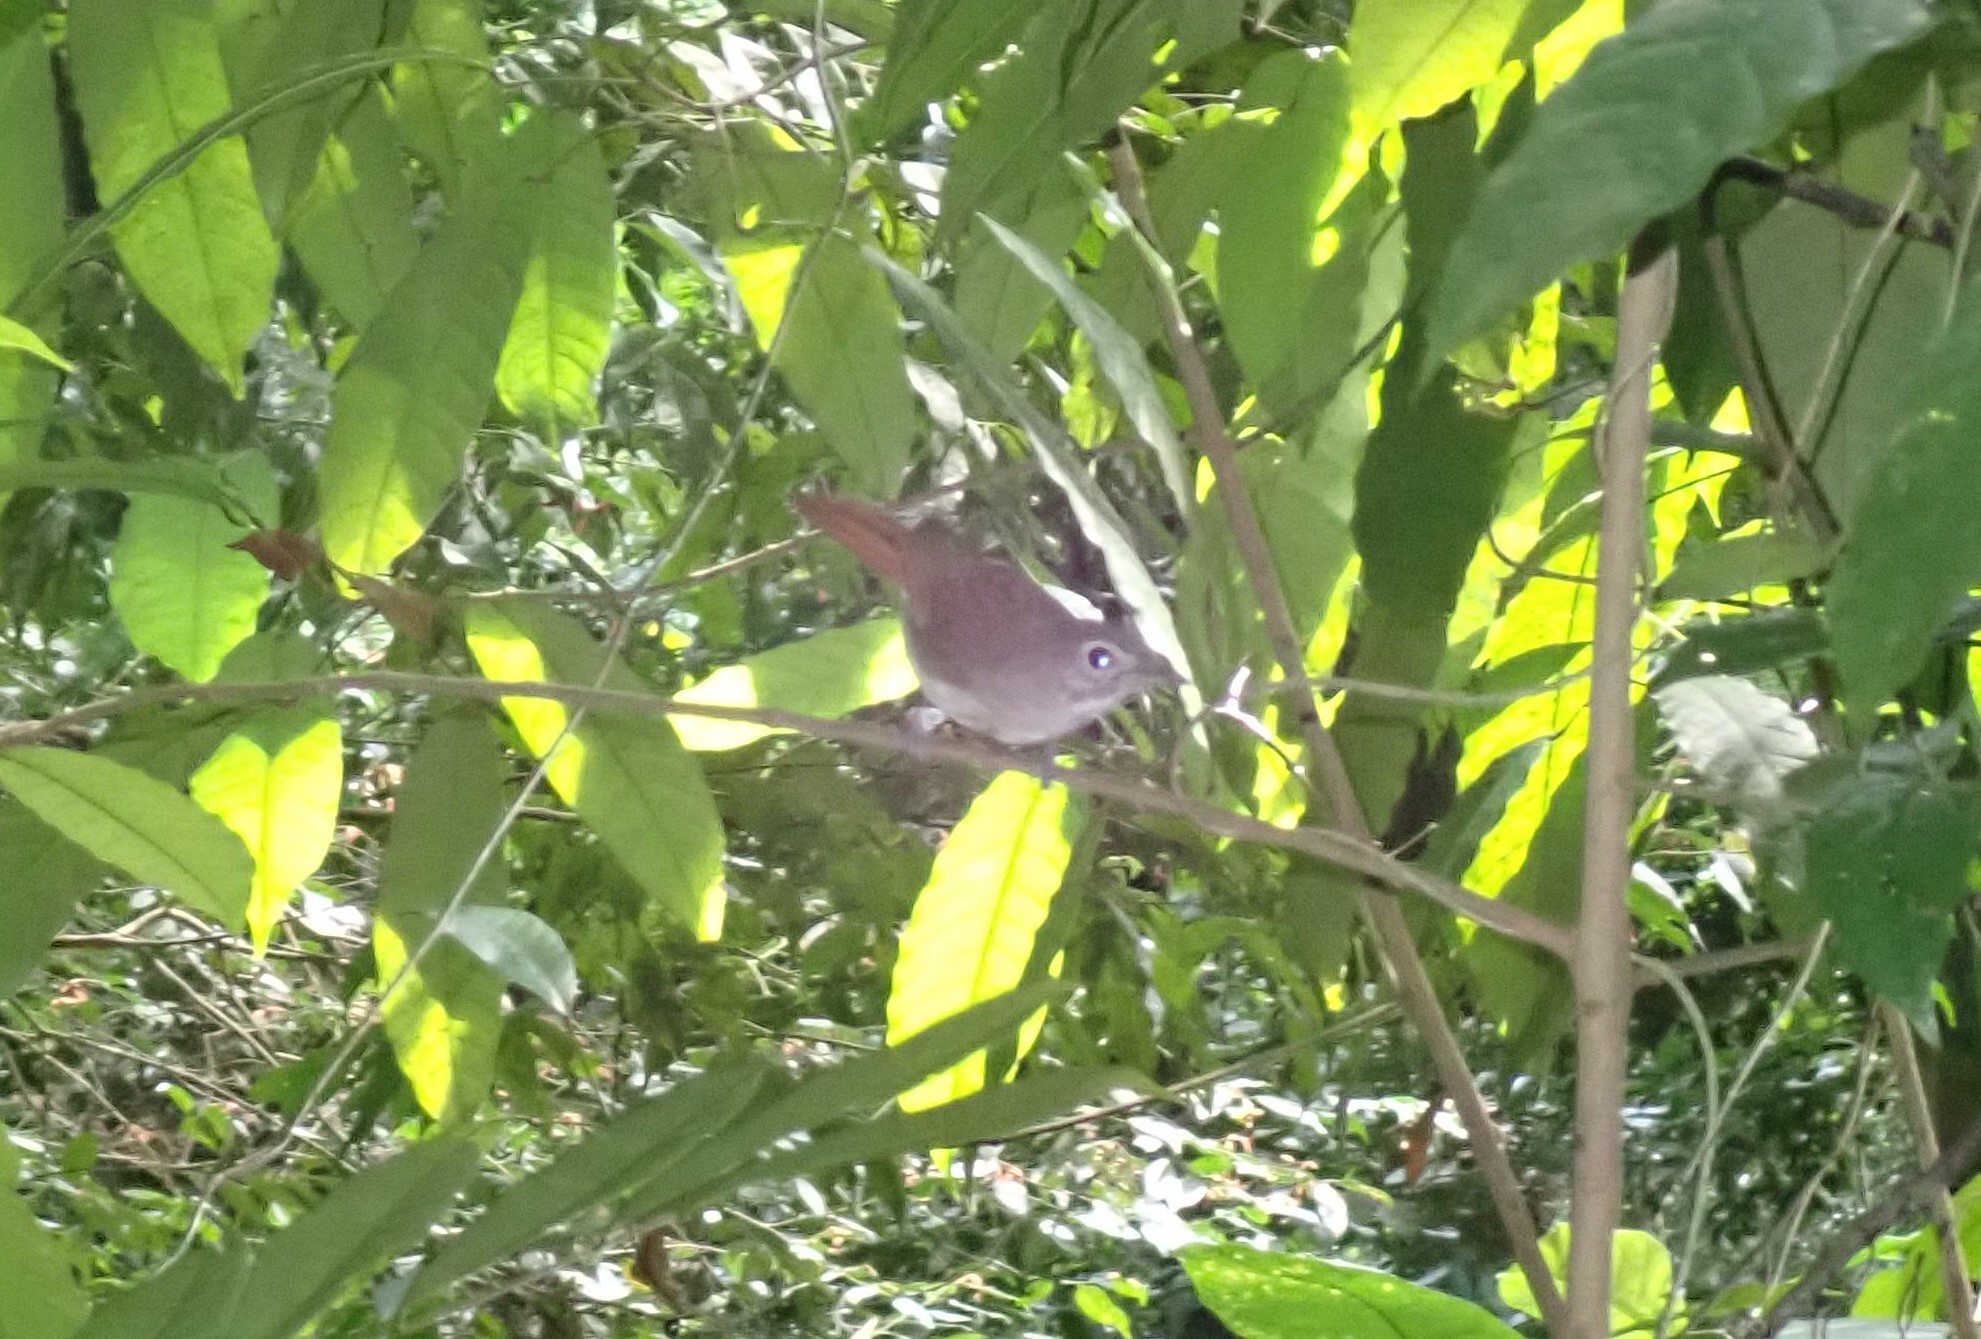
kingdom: Animalia
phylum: Chordata
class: Aves
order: Passeriformes
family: Pellorneidae
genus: Malacopteron
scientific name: Malacopteron magnirostre
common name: Moustached babbler
